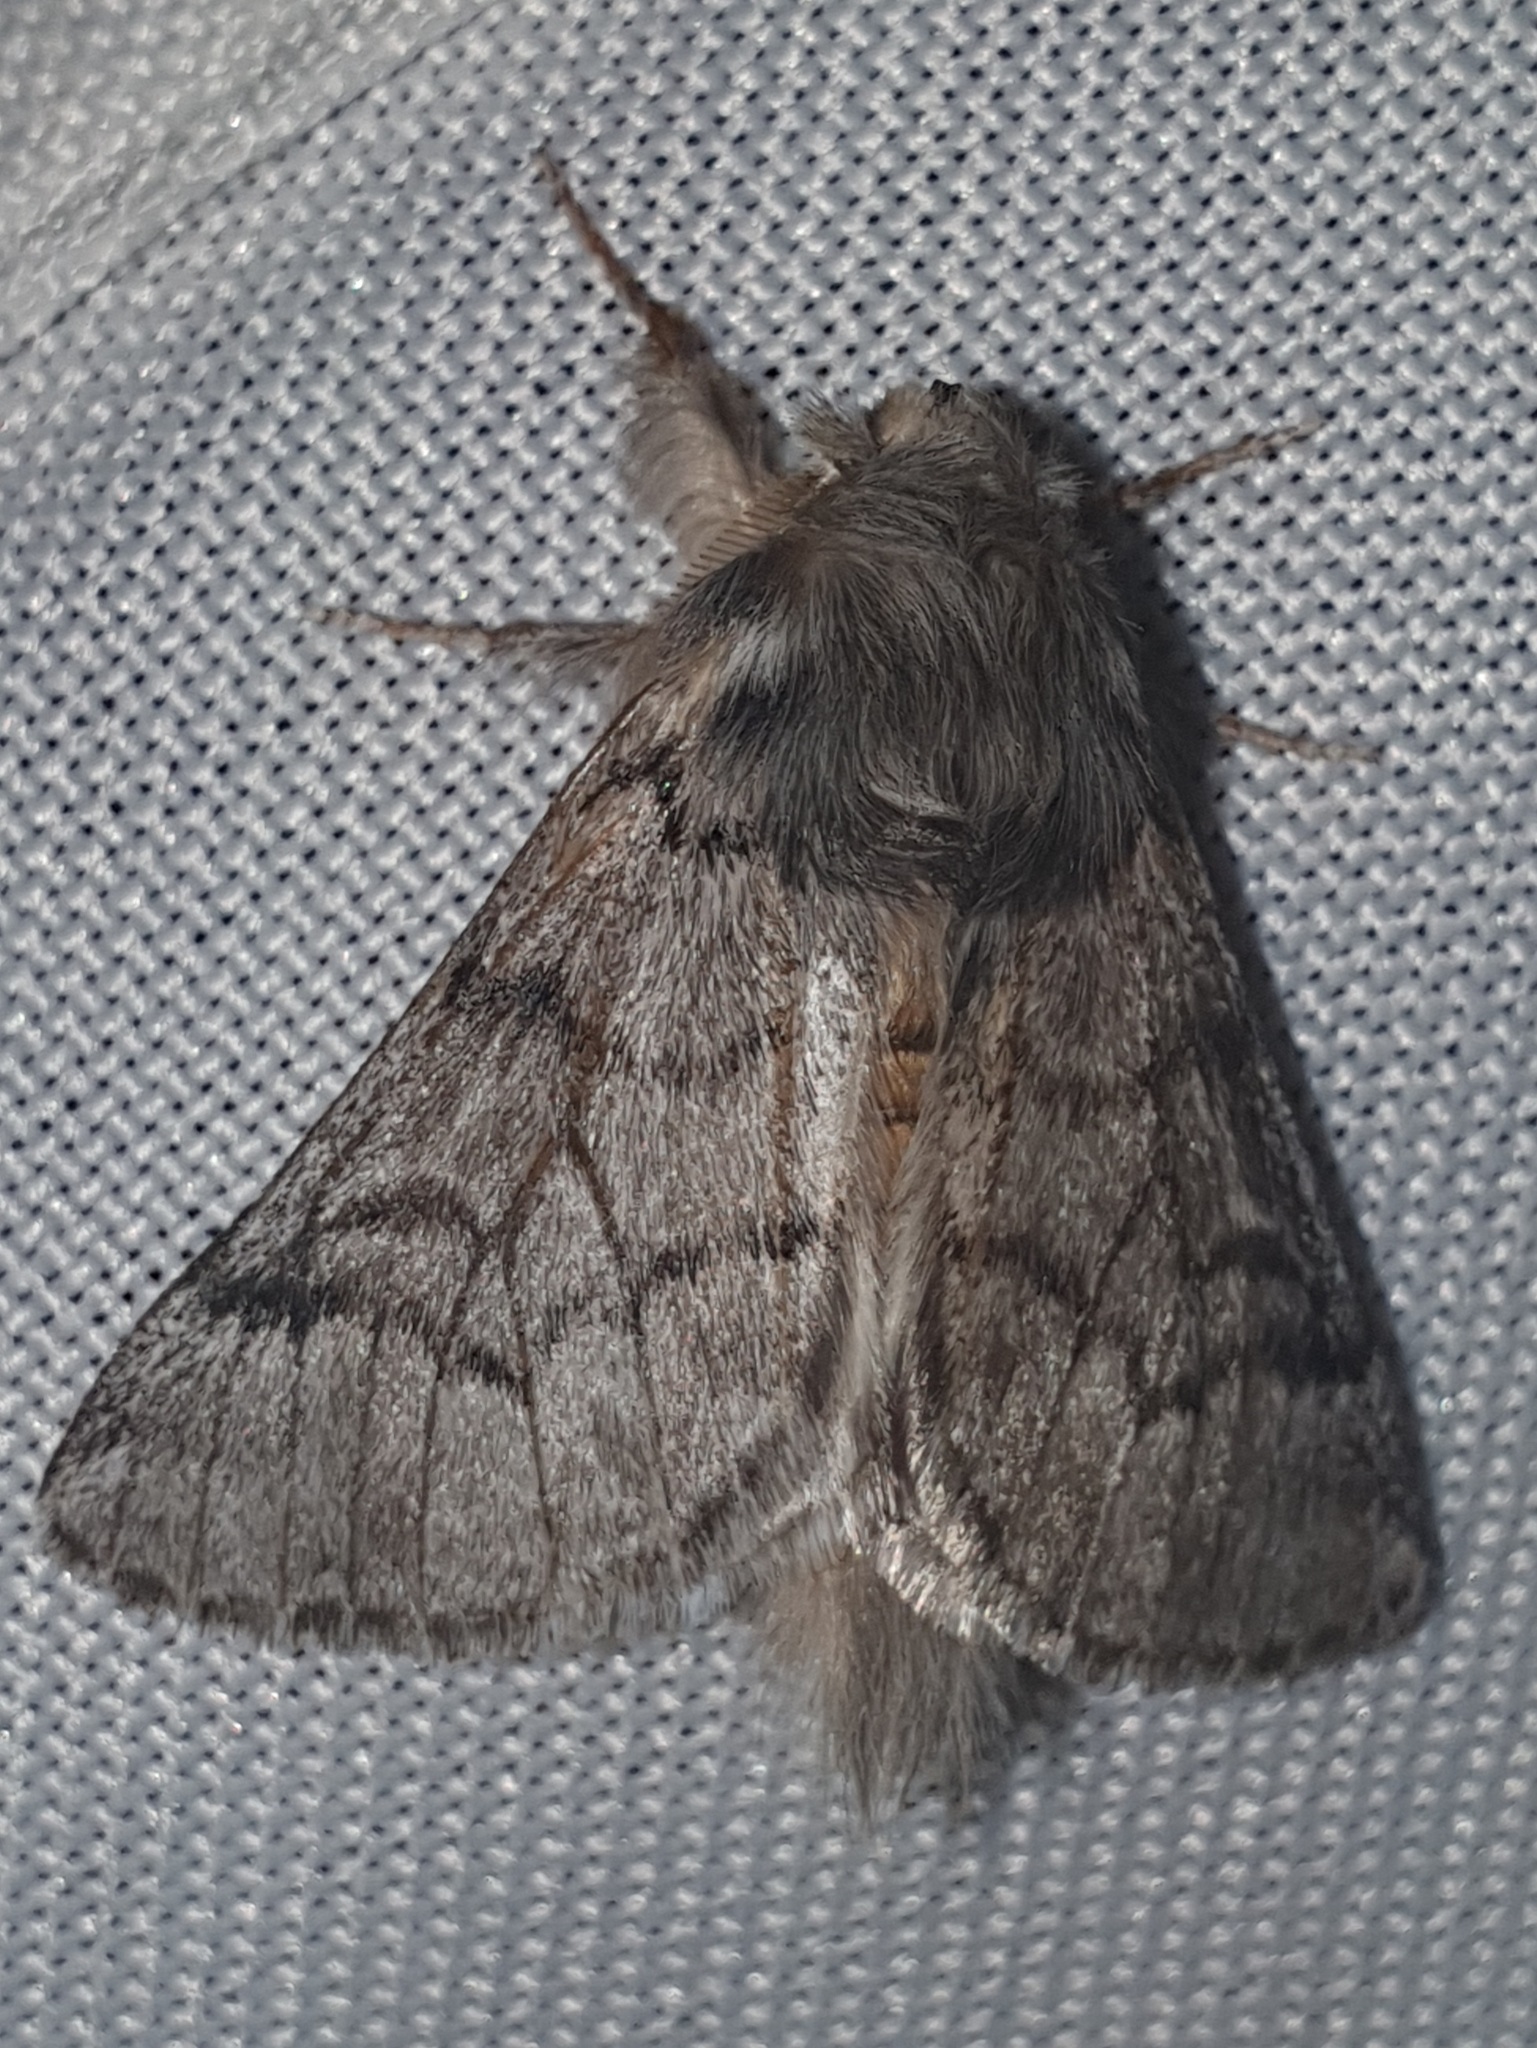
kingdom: Animalia
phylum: Arthropoda
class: Insecta
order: Lepidoptera
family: Notodontidae
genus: Thaumetopoea
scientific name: Thaumetopoea pityocampa
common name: Pine processionary
